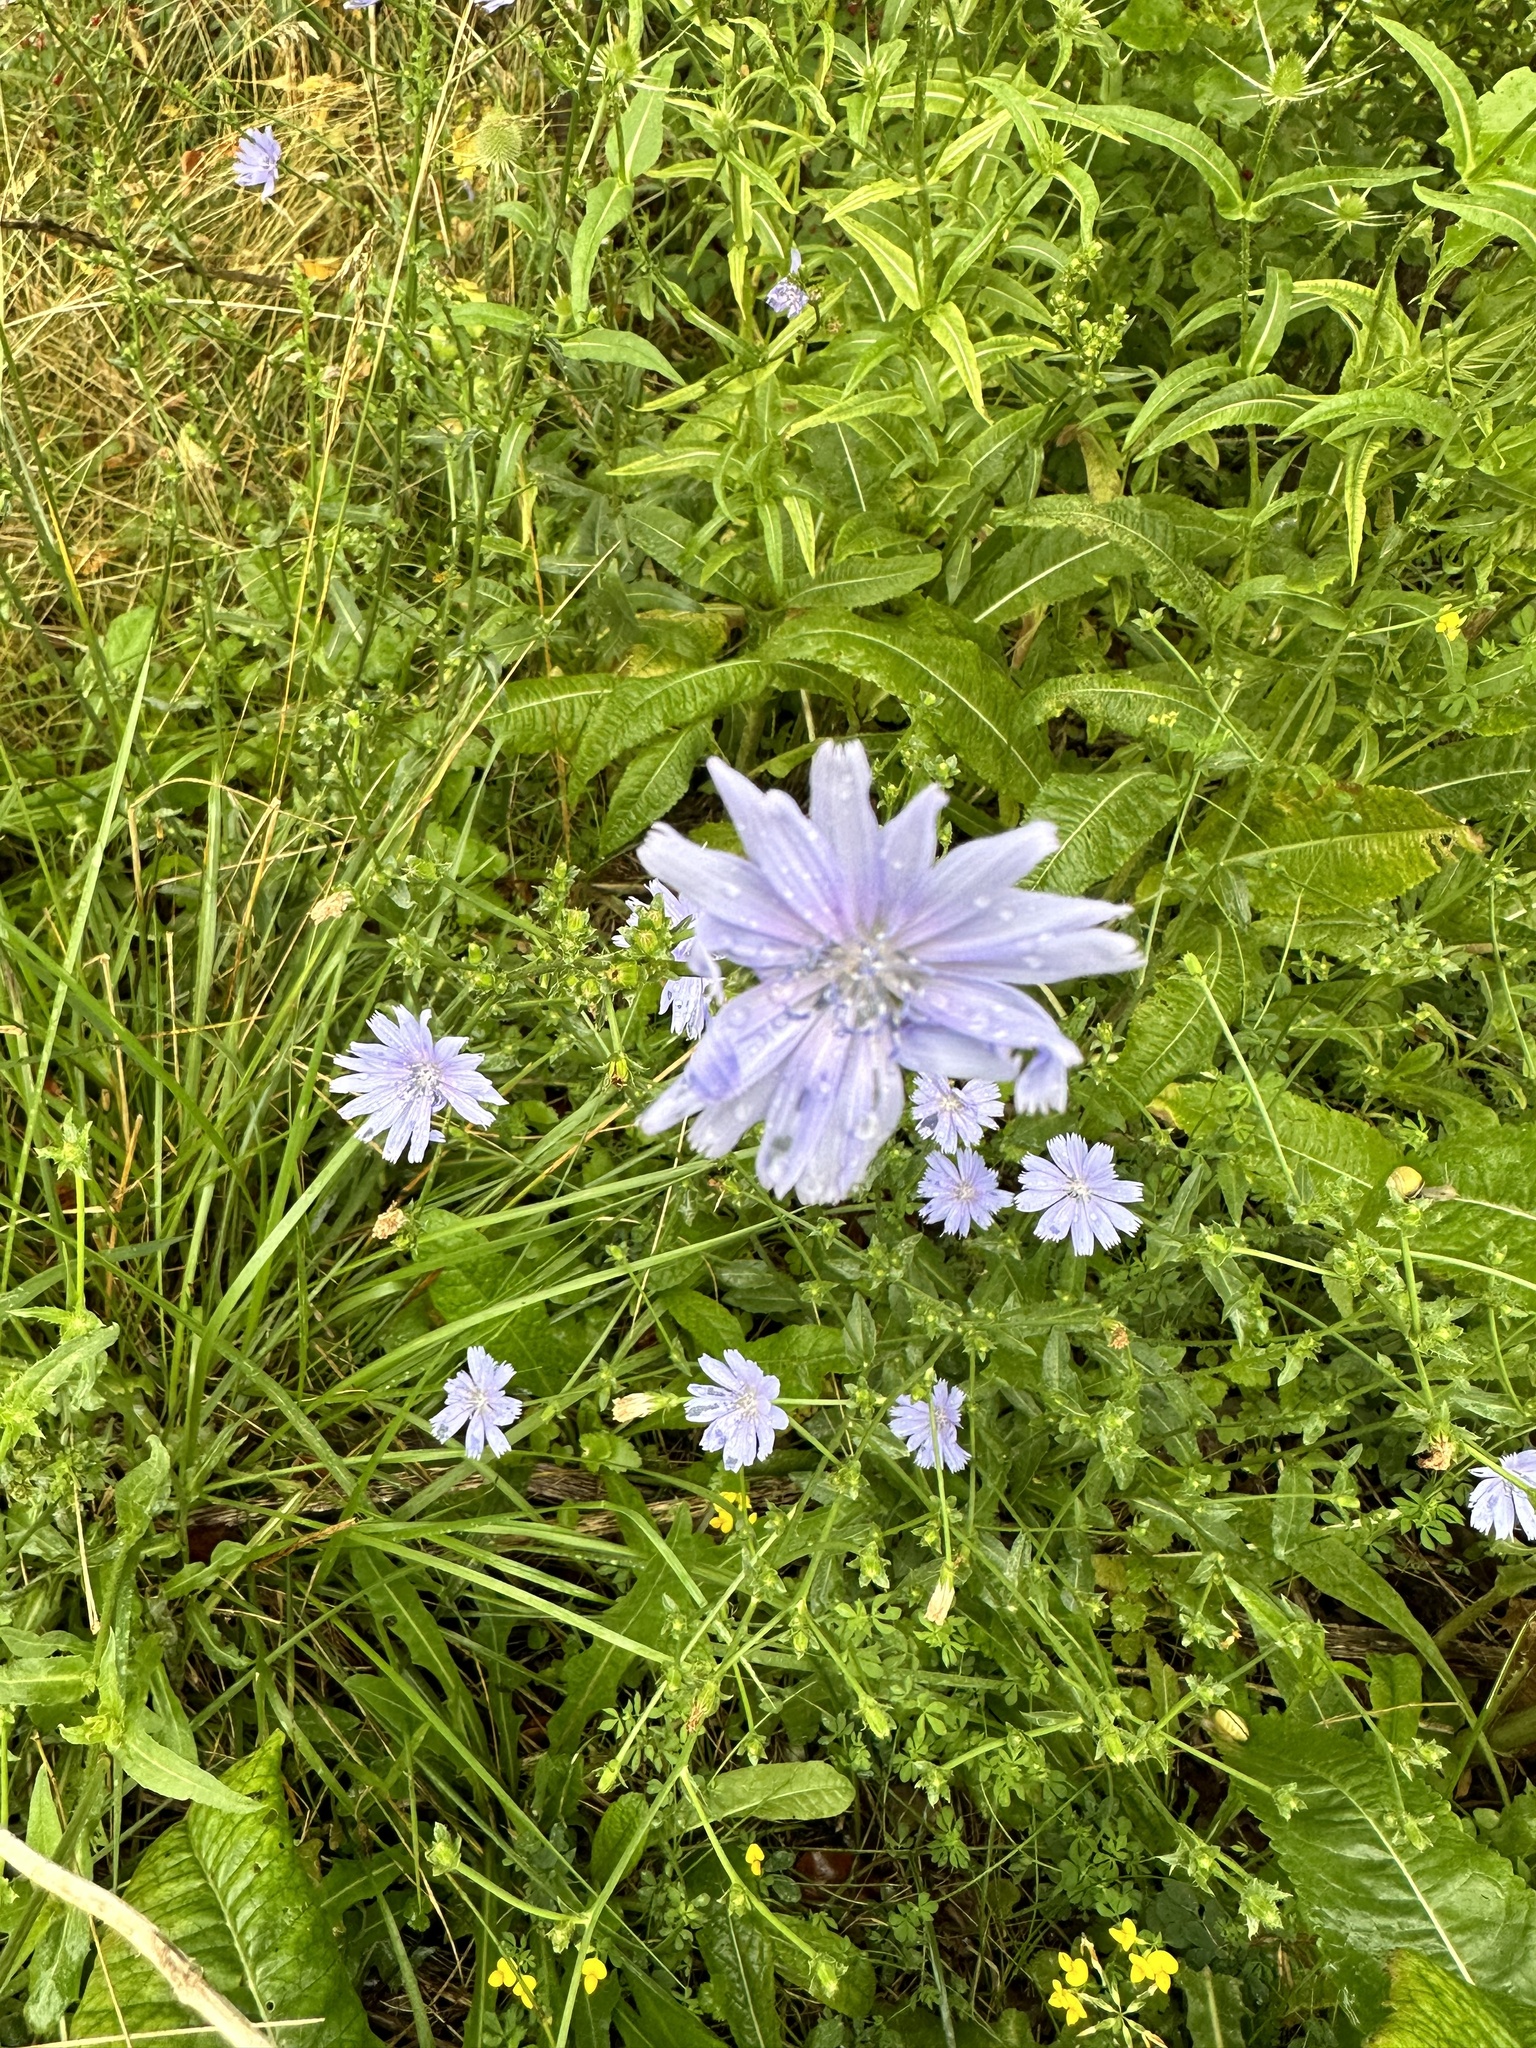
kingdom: Plantae
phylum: Tracheophyta
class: Magnoliopsida
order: Asterales
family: Asteraceae
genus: Cichorium
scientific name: Cichorium intybus
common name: Chicory
